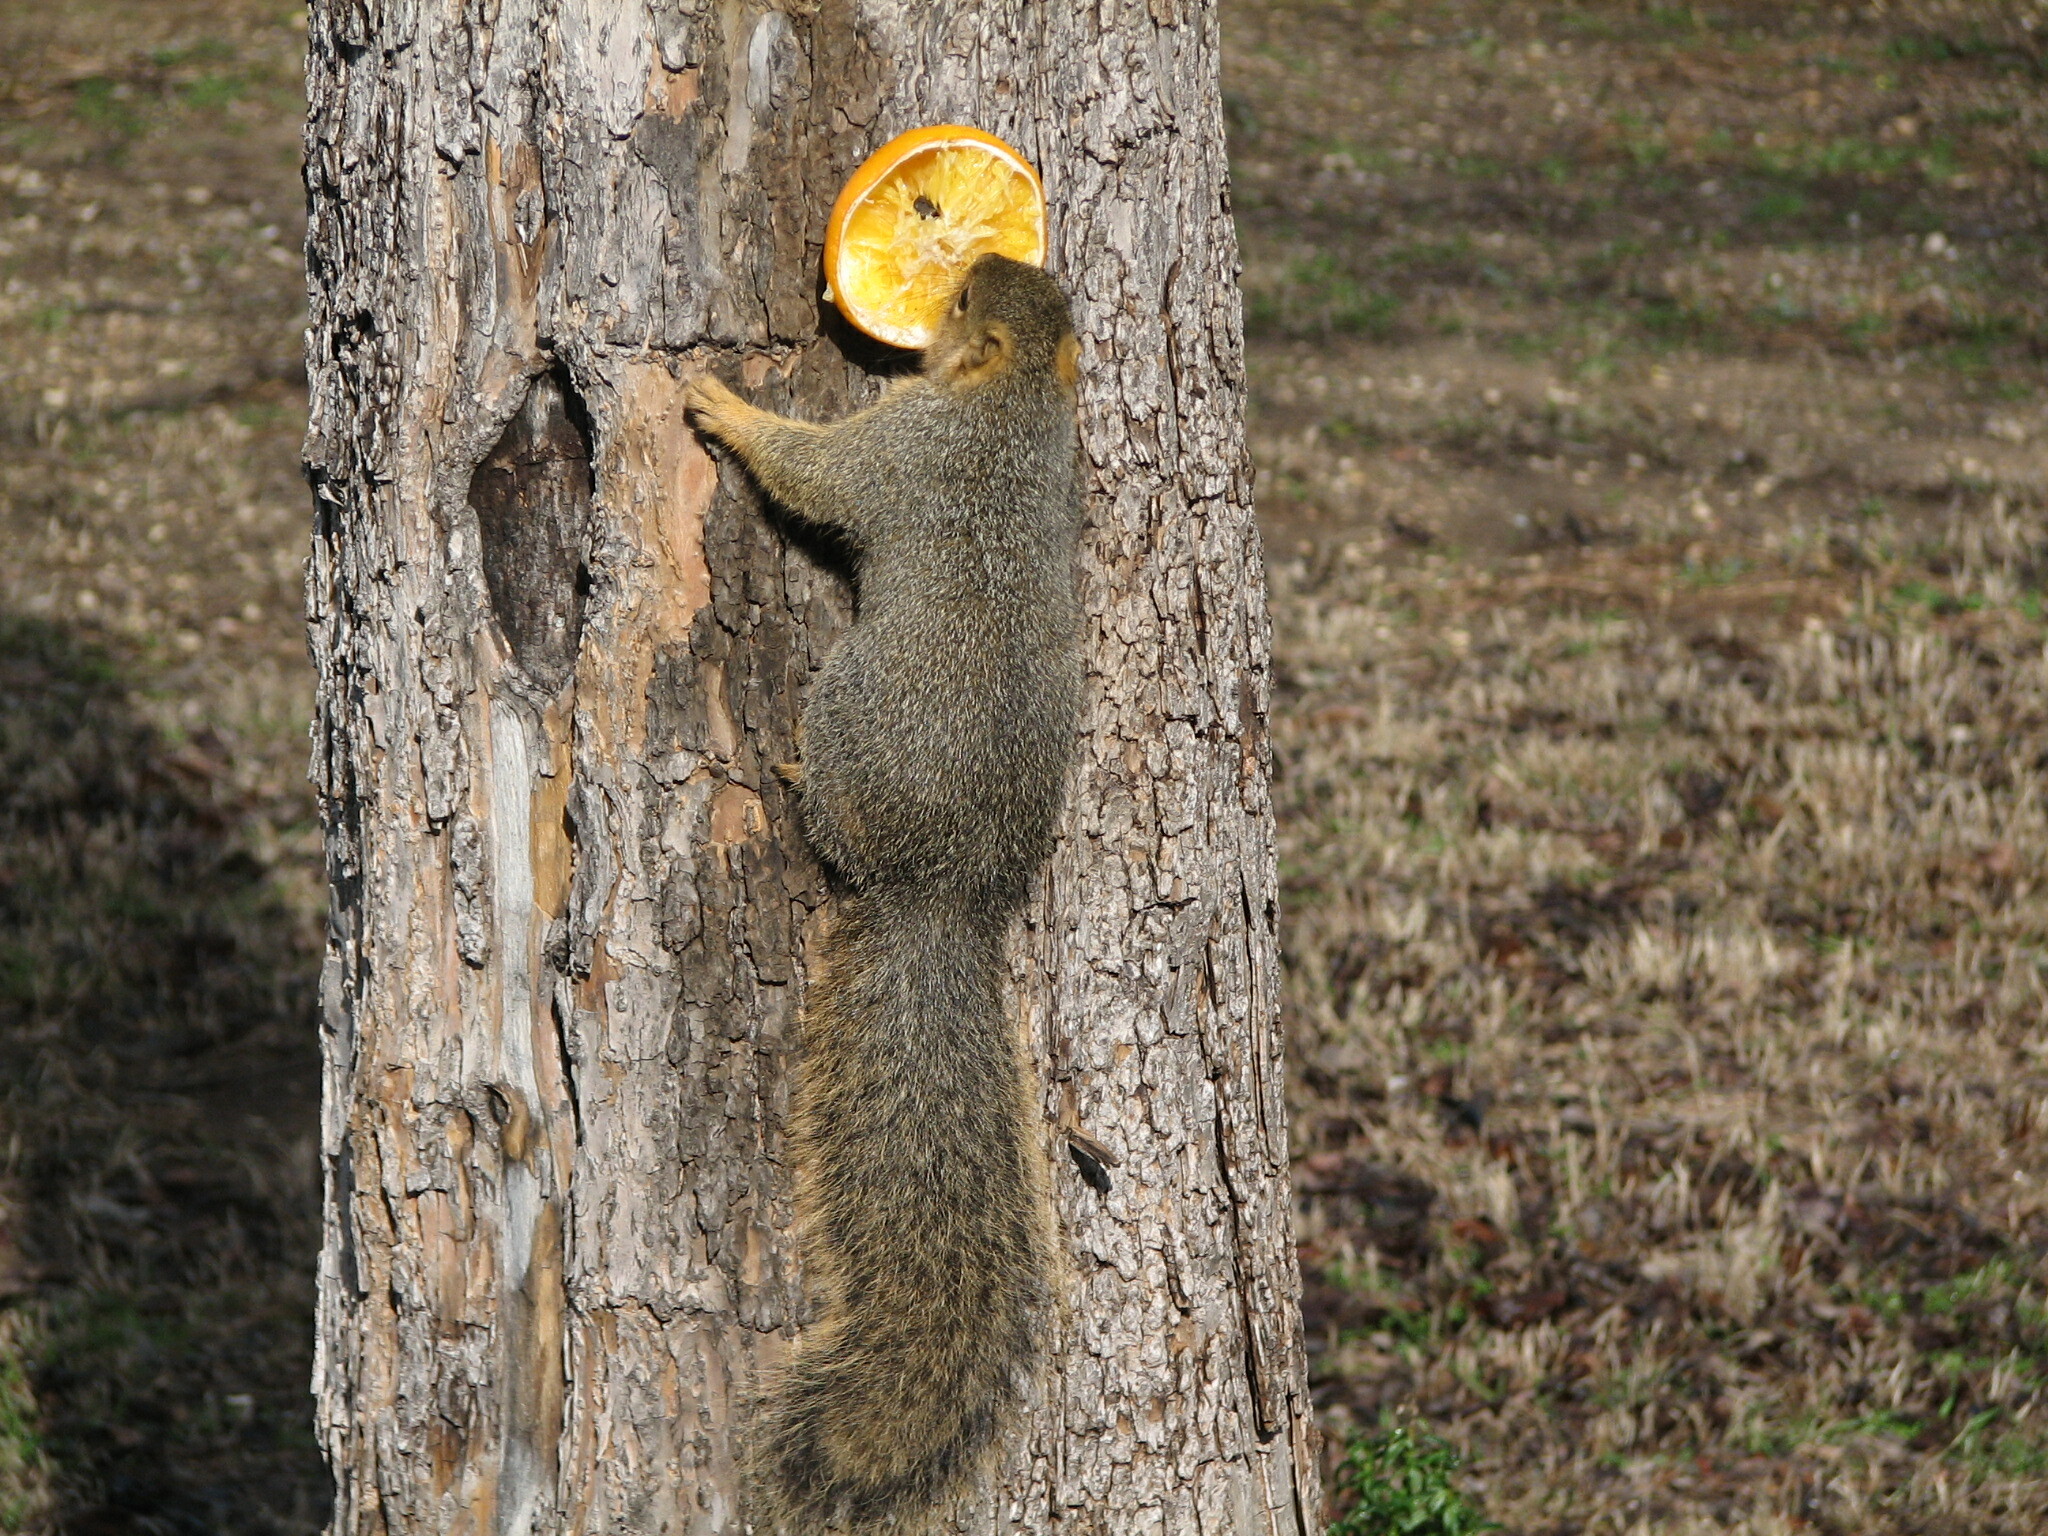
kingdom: Animalia
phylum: Chordata
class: Mammalia
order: Rodentia
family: Sciuridae
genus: Sciurus
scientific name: Sciurus niger
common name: Fox squirrel
